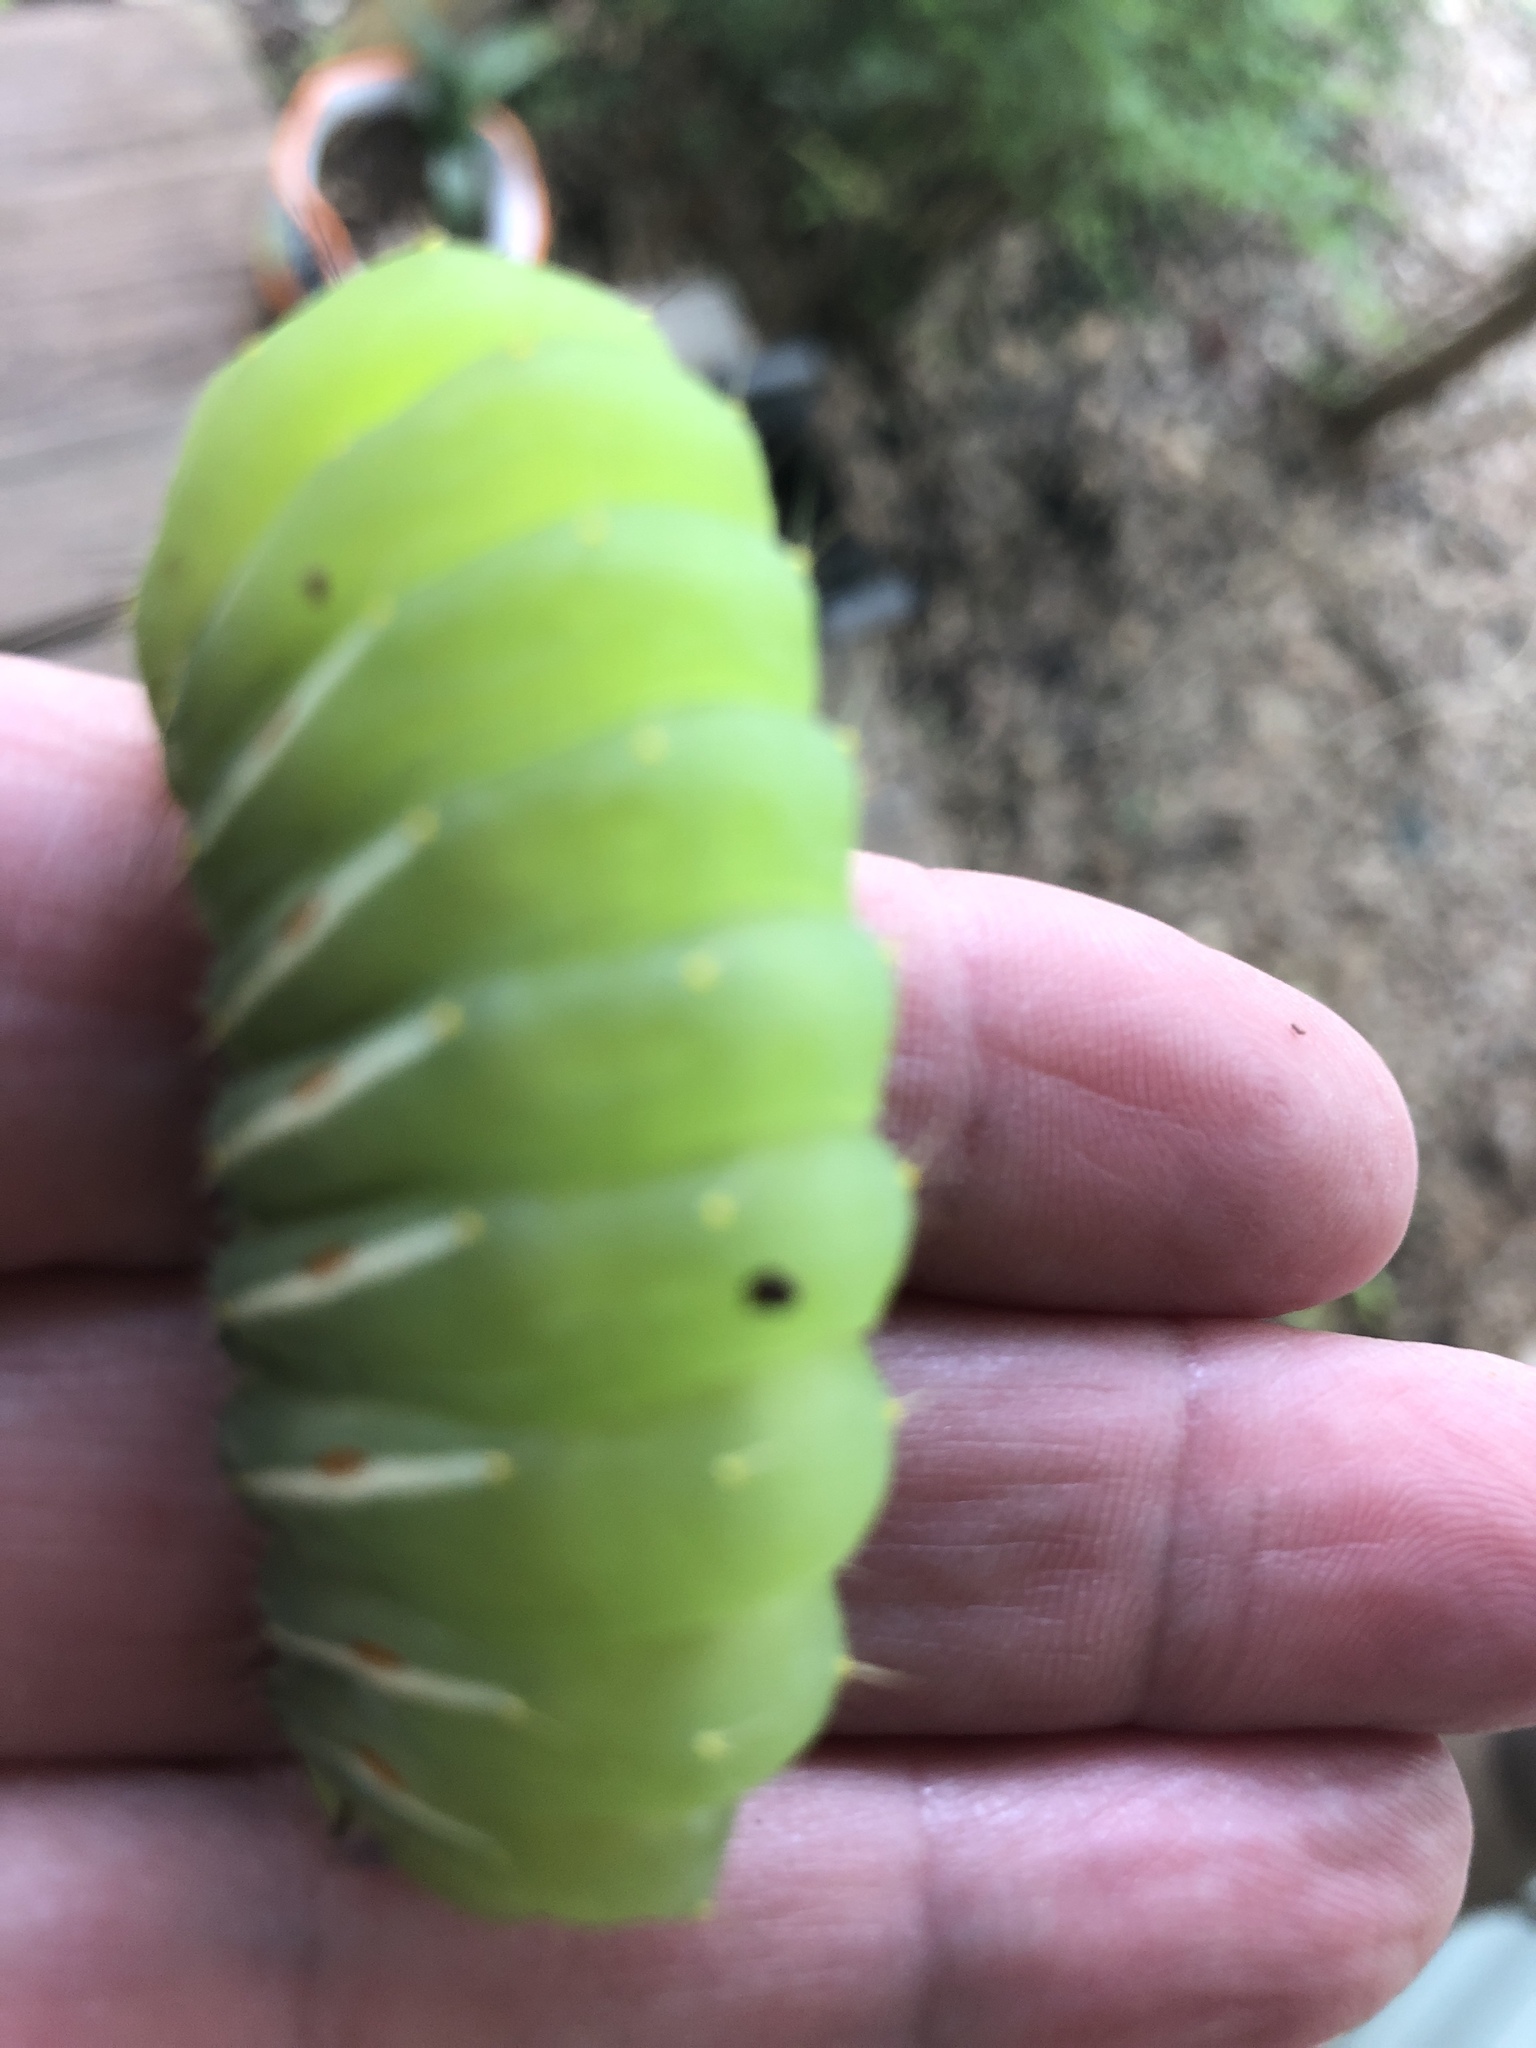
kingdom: Animalia
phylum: Arthropoda
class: Insecta
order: Lepidoptera
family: Saturniidae
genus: Antheraea
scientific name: Antheraea polyphemus
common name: Polyphemus moth
